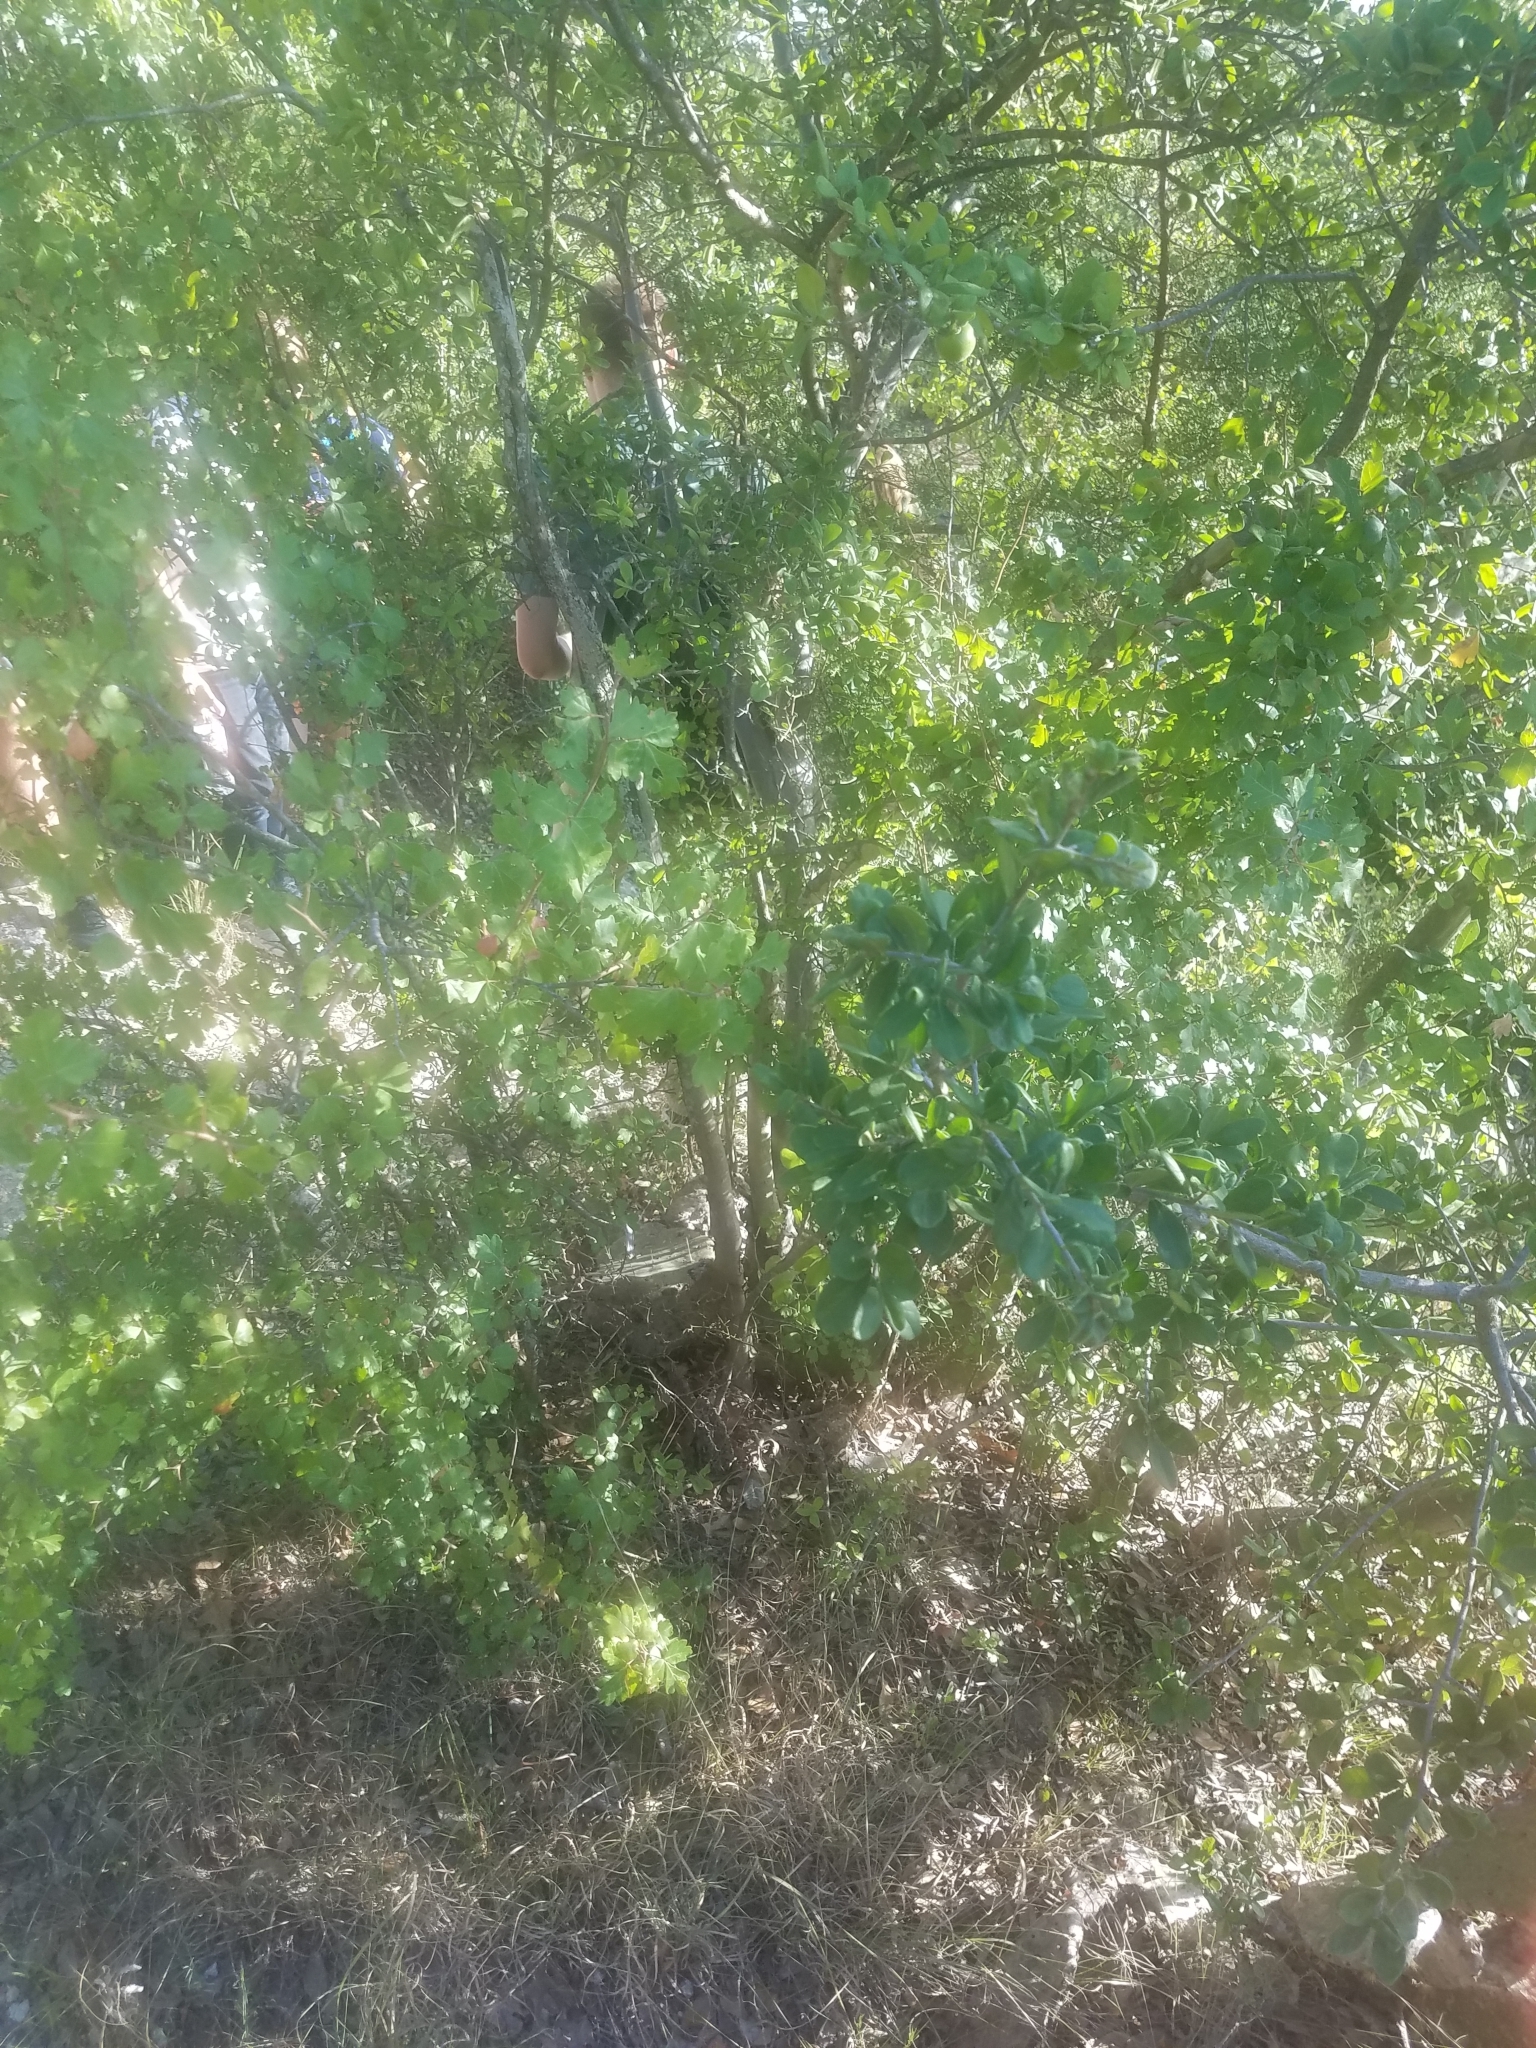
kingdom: Plantae
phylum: Tracheophyta
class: Magnoliopsida
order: Ericales
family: Ebenaceae
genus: Diospyros
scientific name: Diospyros texana
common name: Texas persimmon
